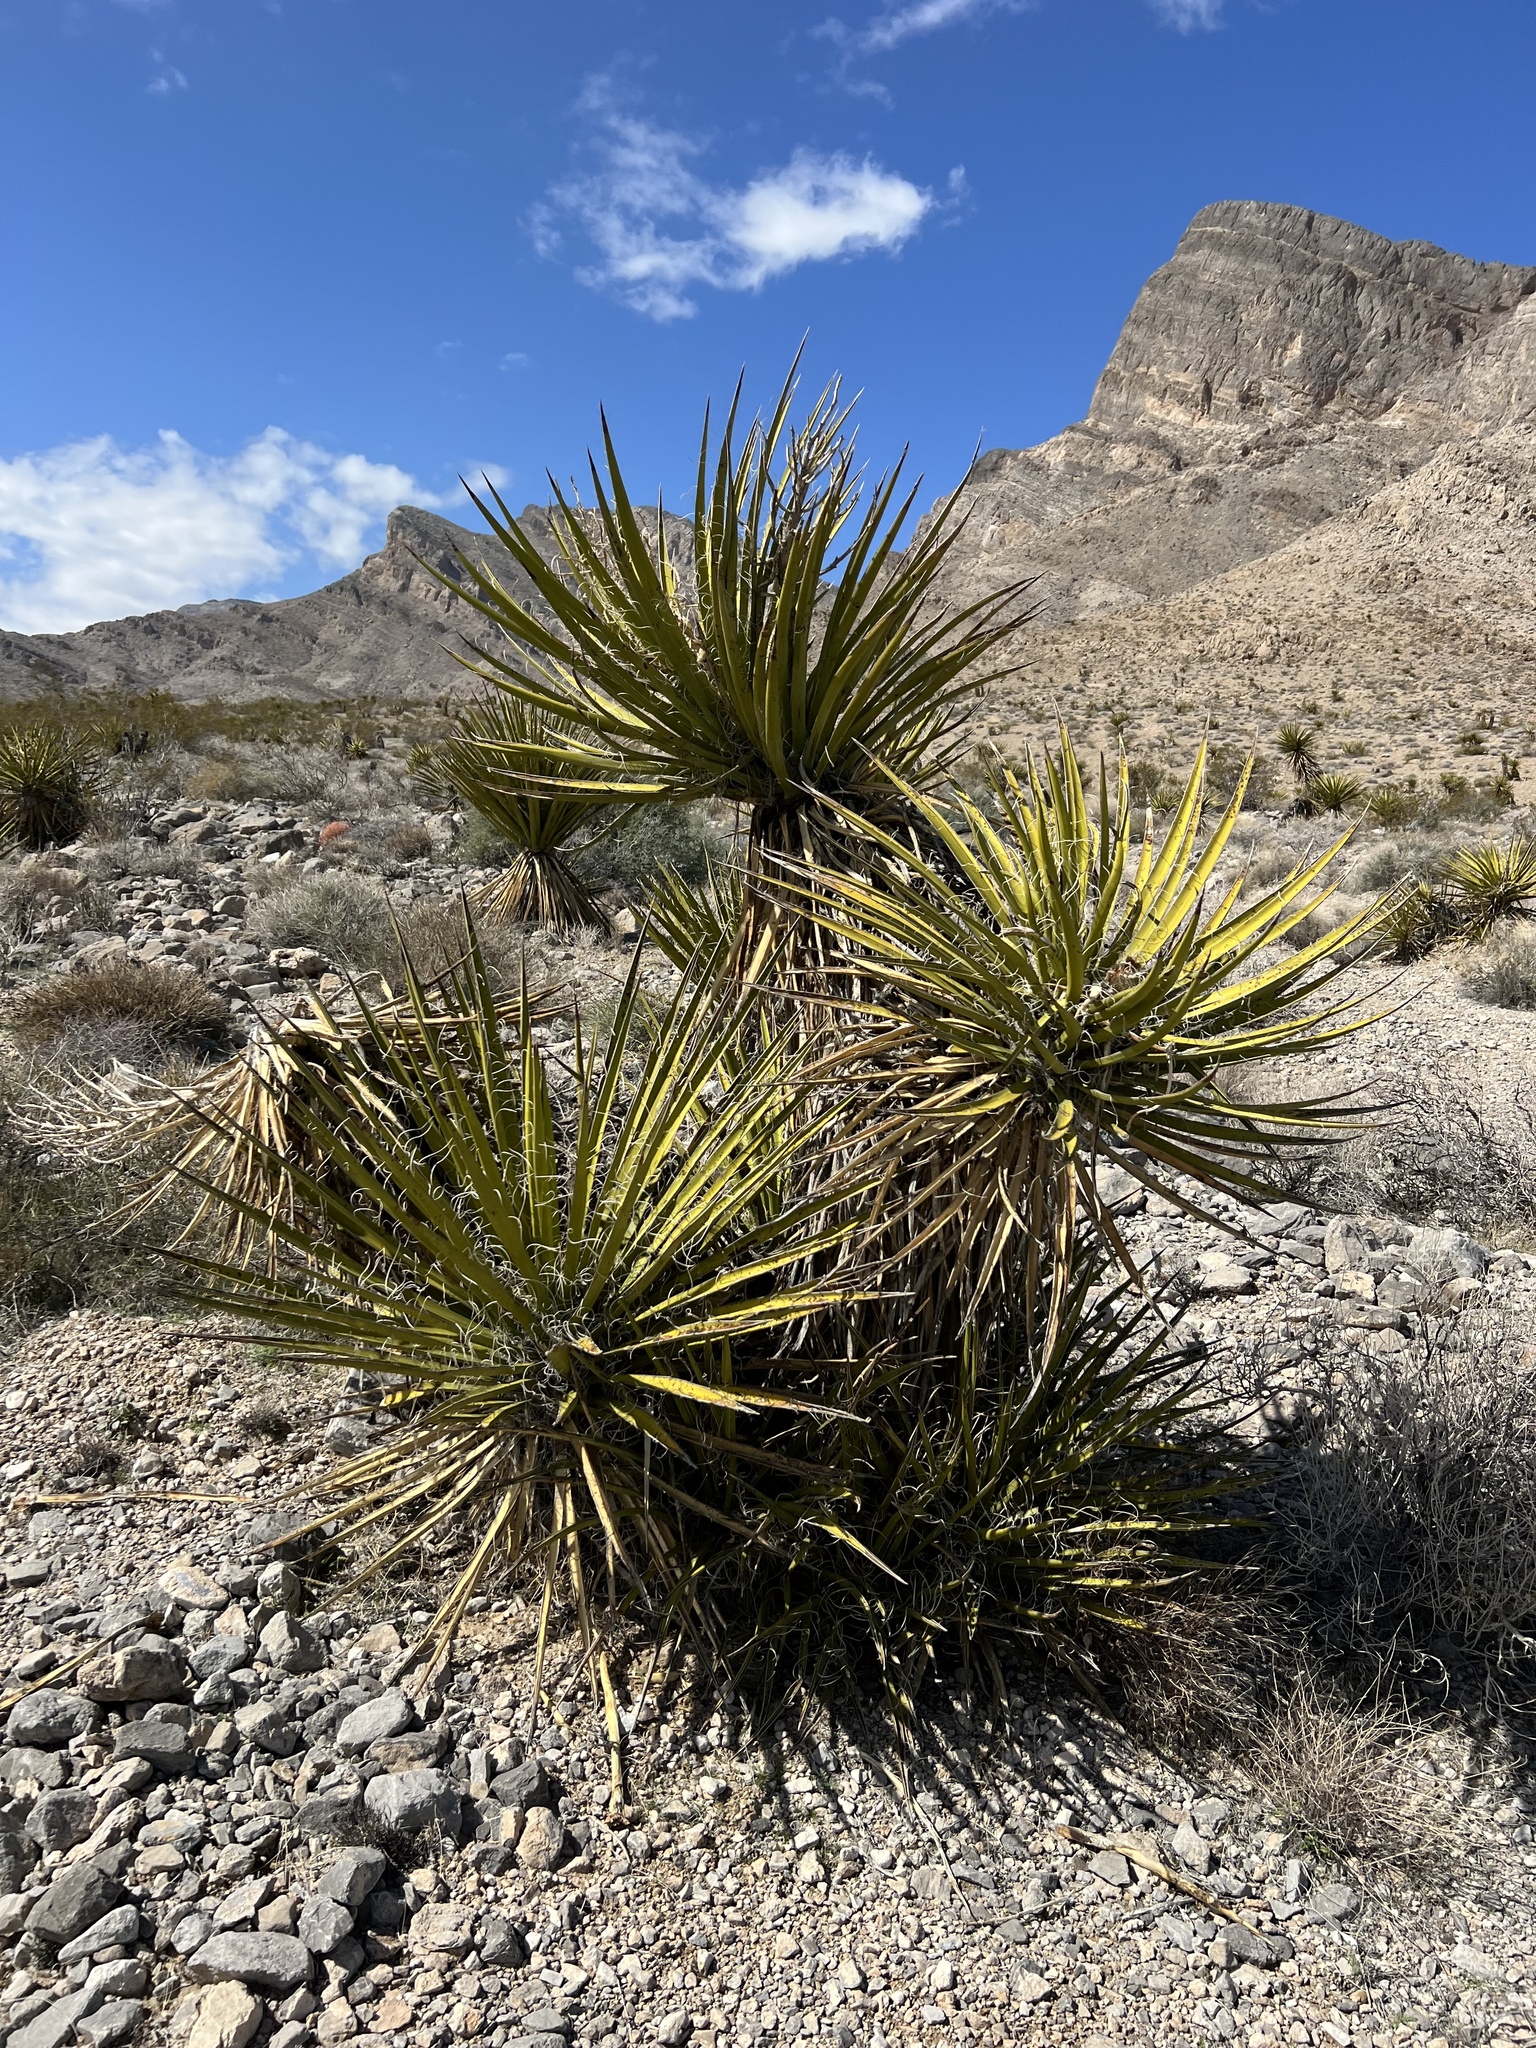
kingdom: Plantae
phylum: Tracheophyta
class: Liliopsida
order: Asparagales
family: Asparagaceae
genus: Yucca
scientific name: Yucca schidigera
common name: Mojave yucca
